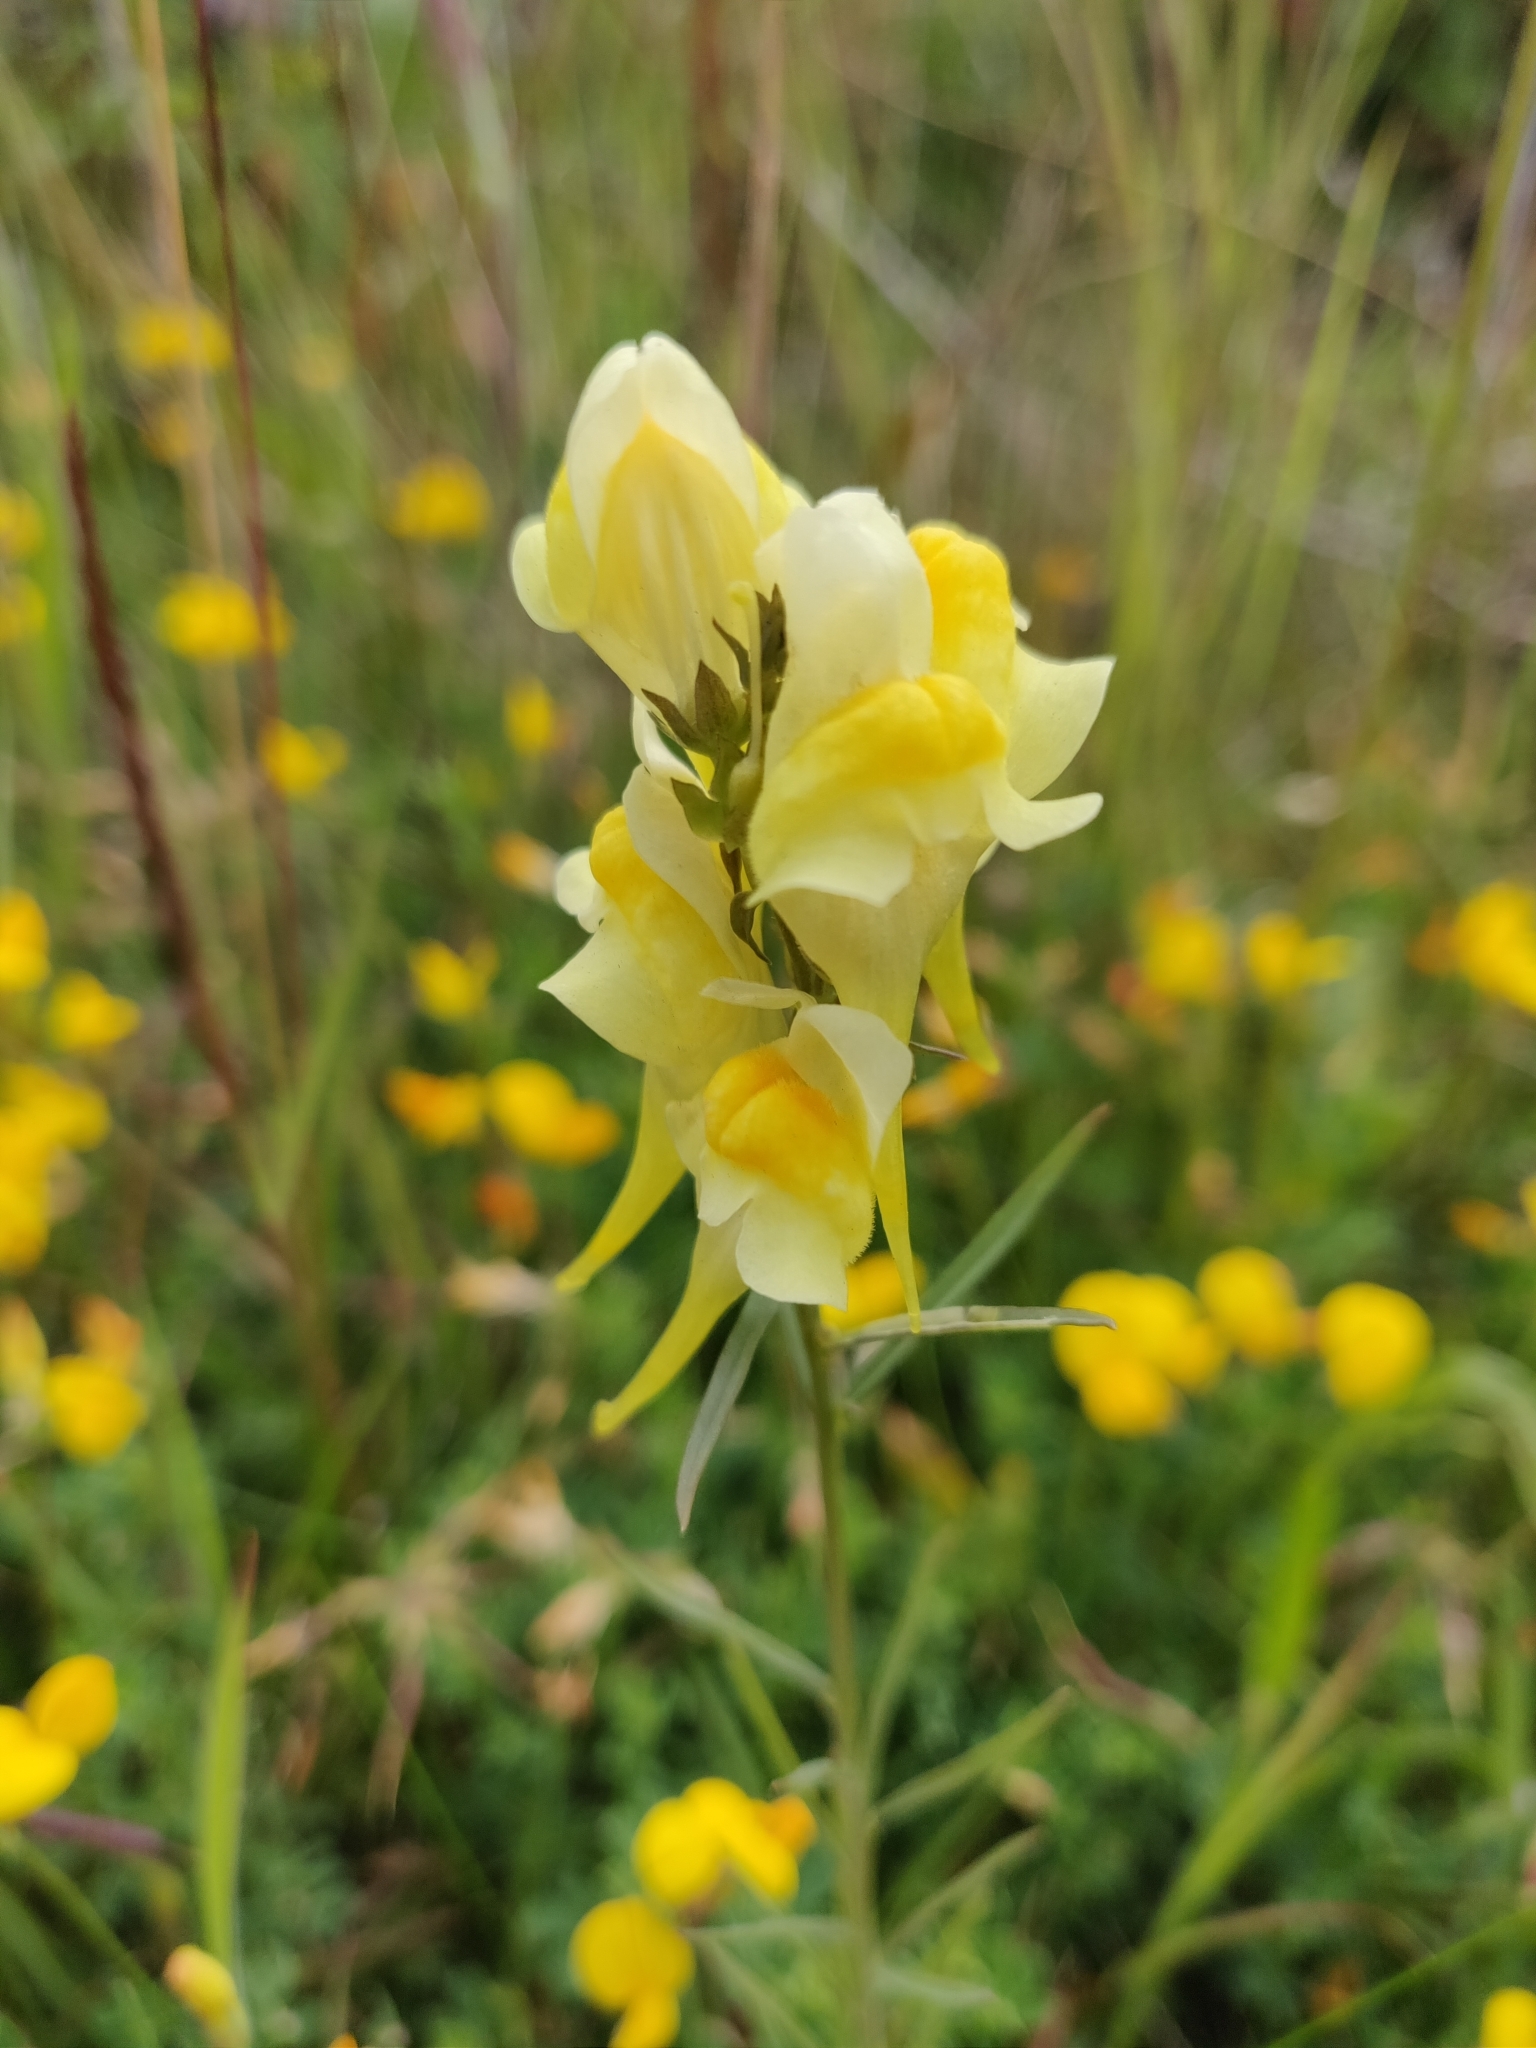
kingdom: Plantae
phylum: Tracheophyta
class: Magnoliopsida
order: Lamiales
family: Plantaginaceae
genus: Linaria
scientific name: Linaria vulgaris
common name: Butter and eggs
